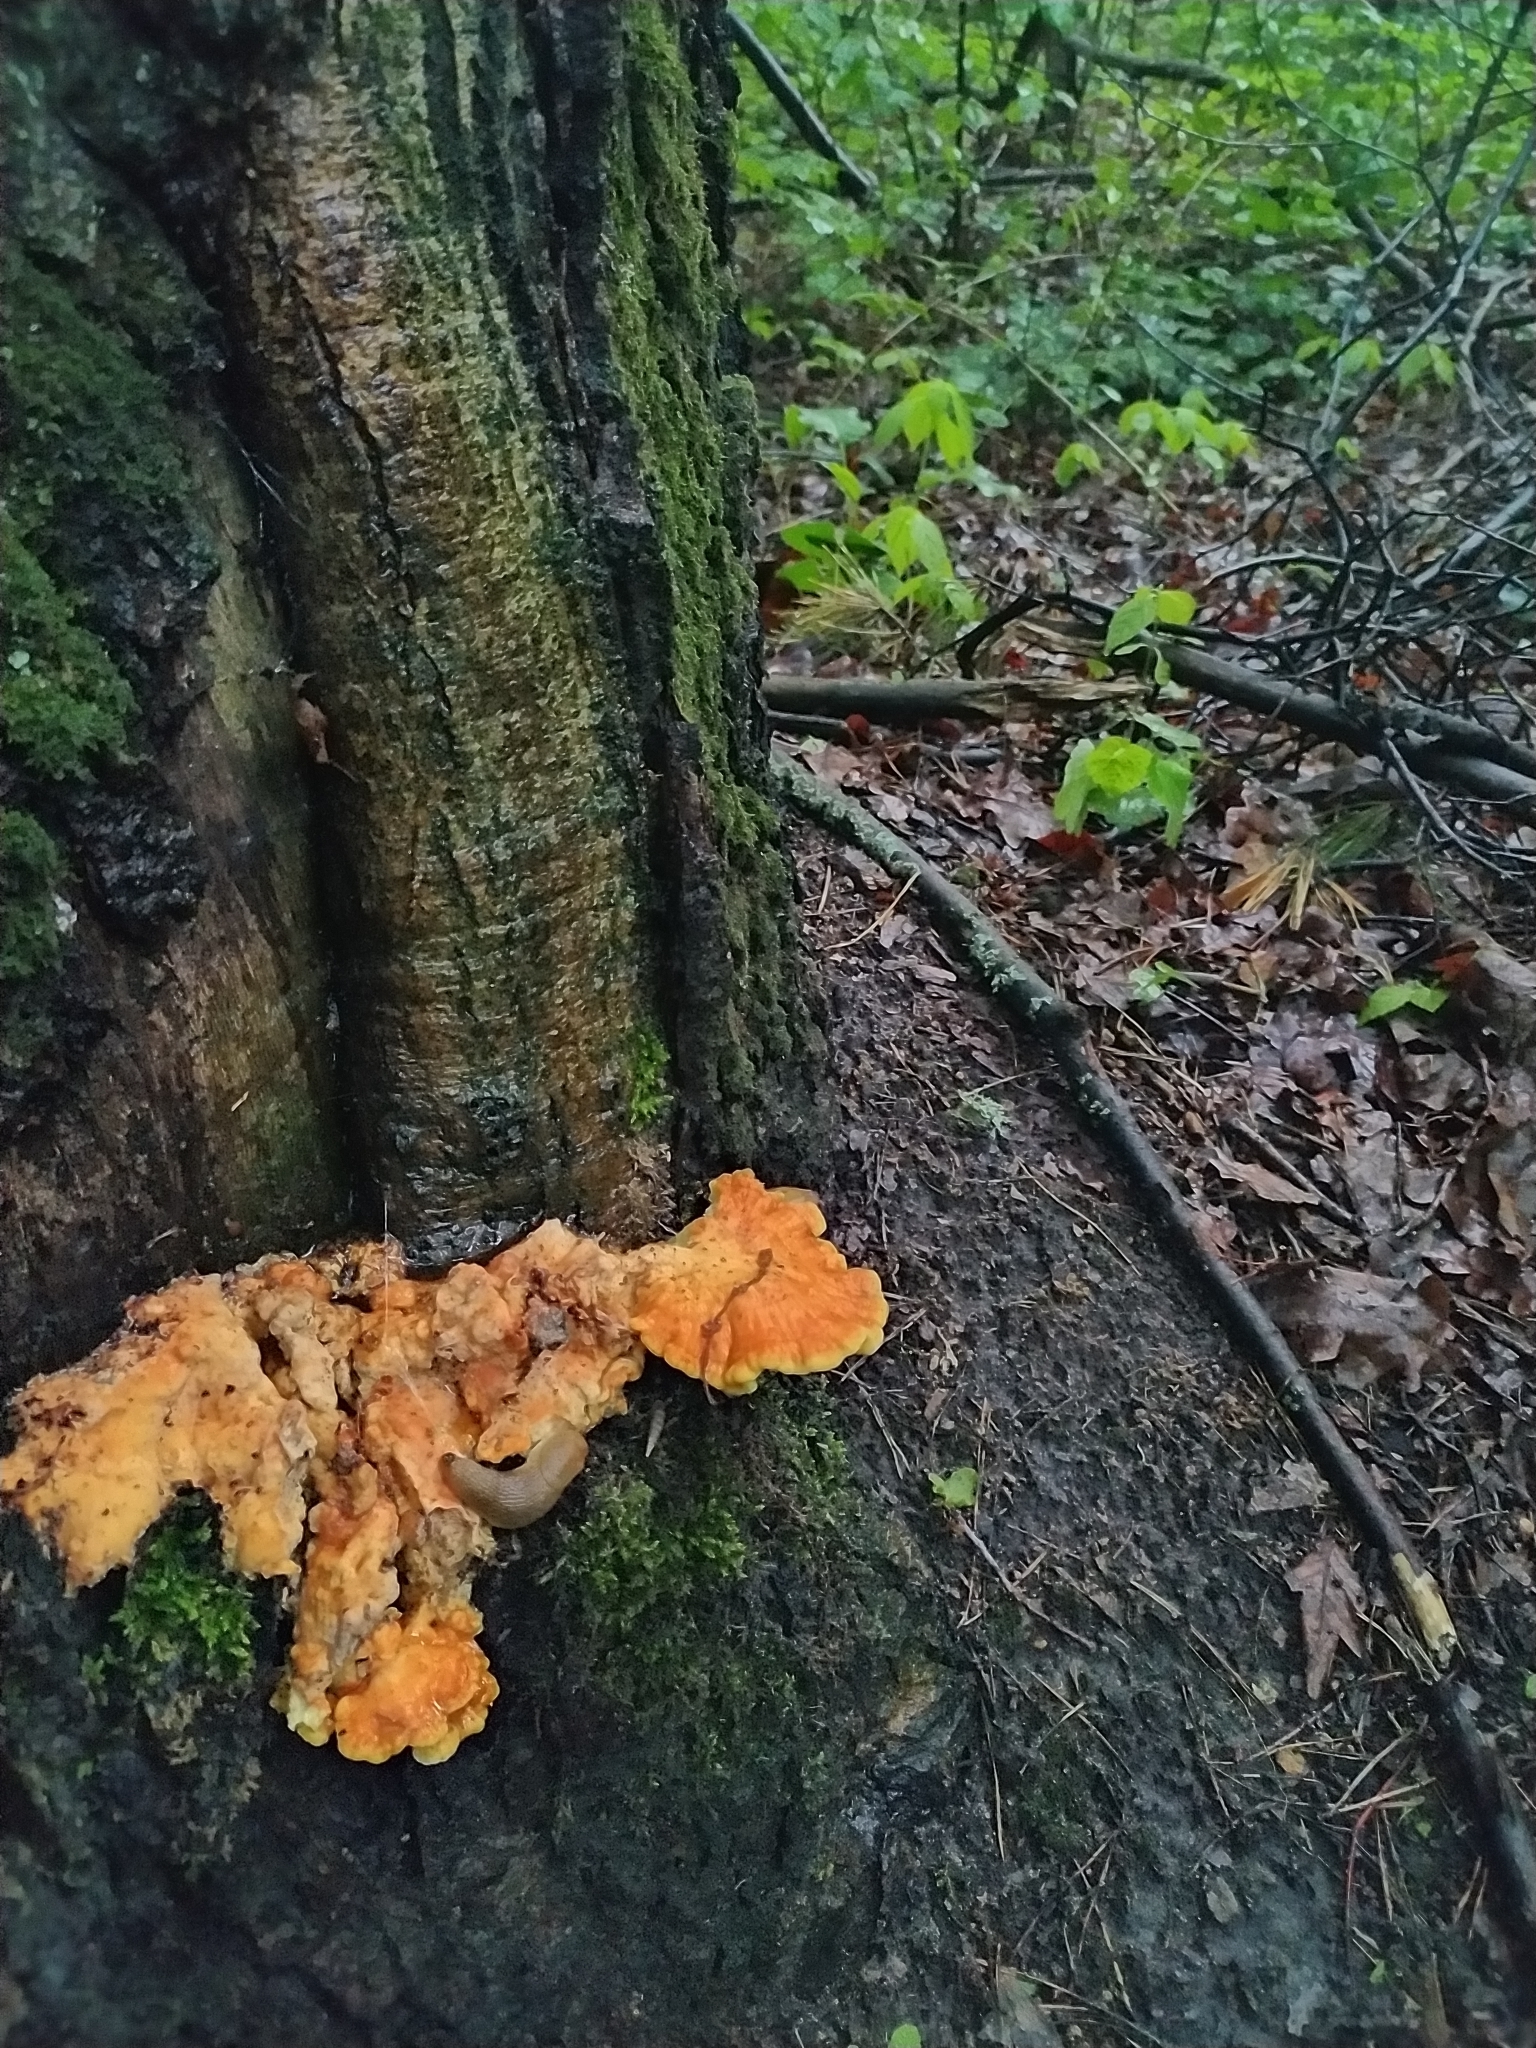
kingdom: Fungi
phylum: Basidiomycota
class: Agaricomycetes
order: Polyporales
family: Laetiporaceae
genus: Laetiporus
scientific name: Laetiporus sulphureus
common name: Chicken of the woods
